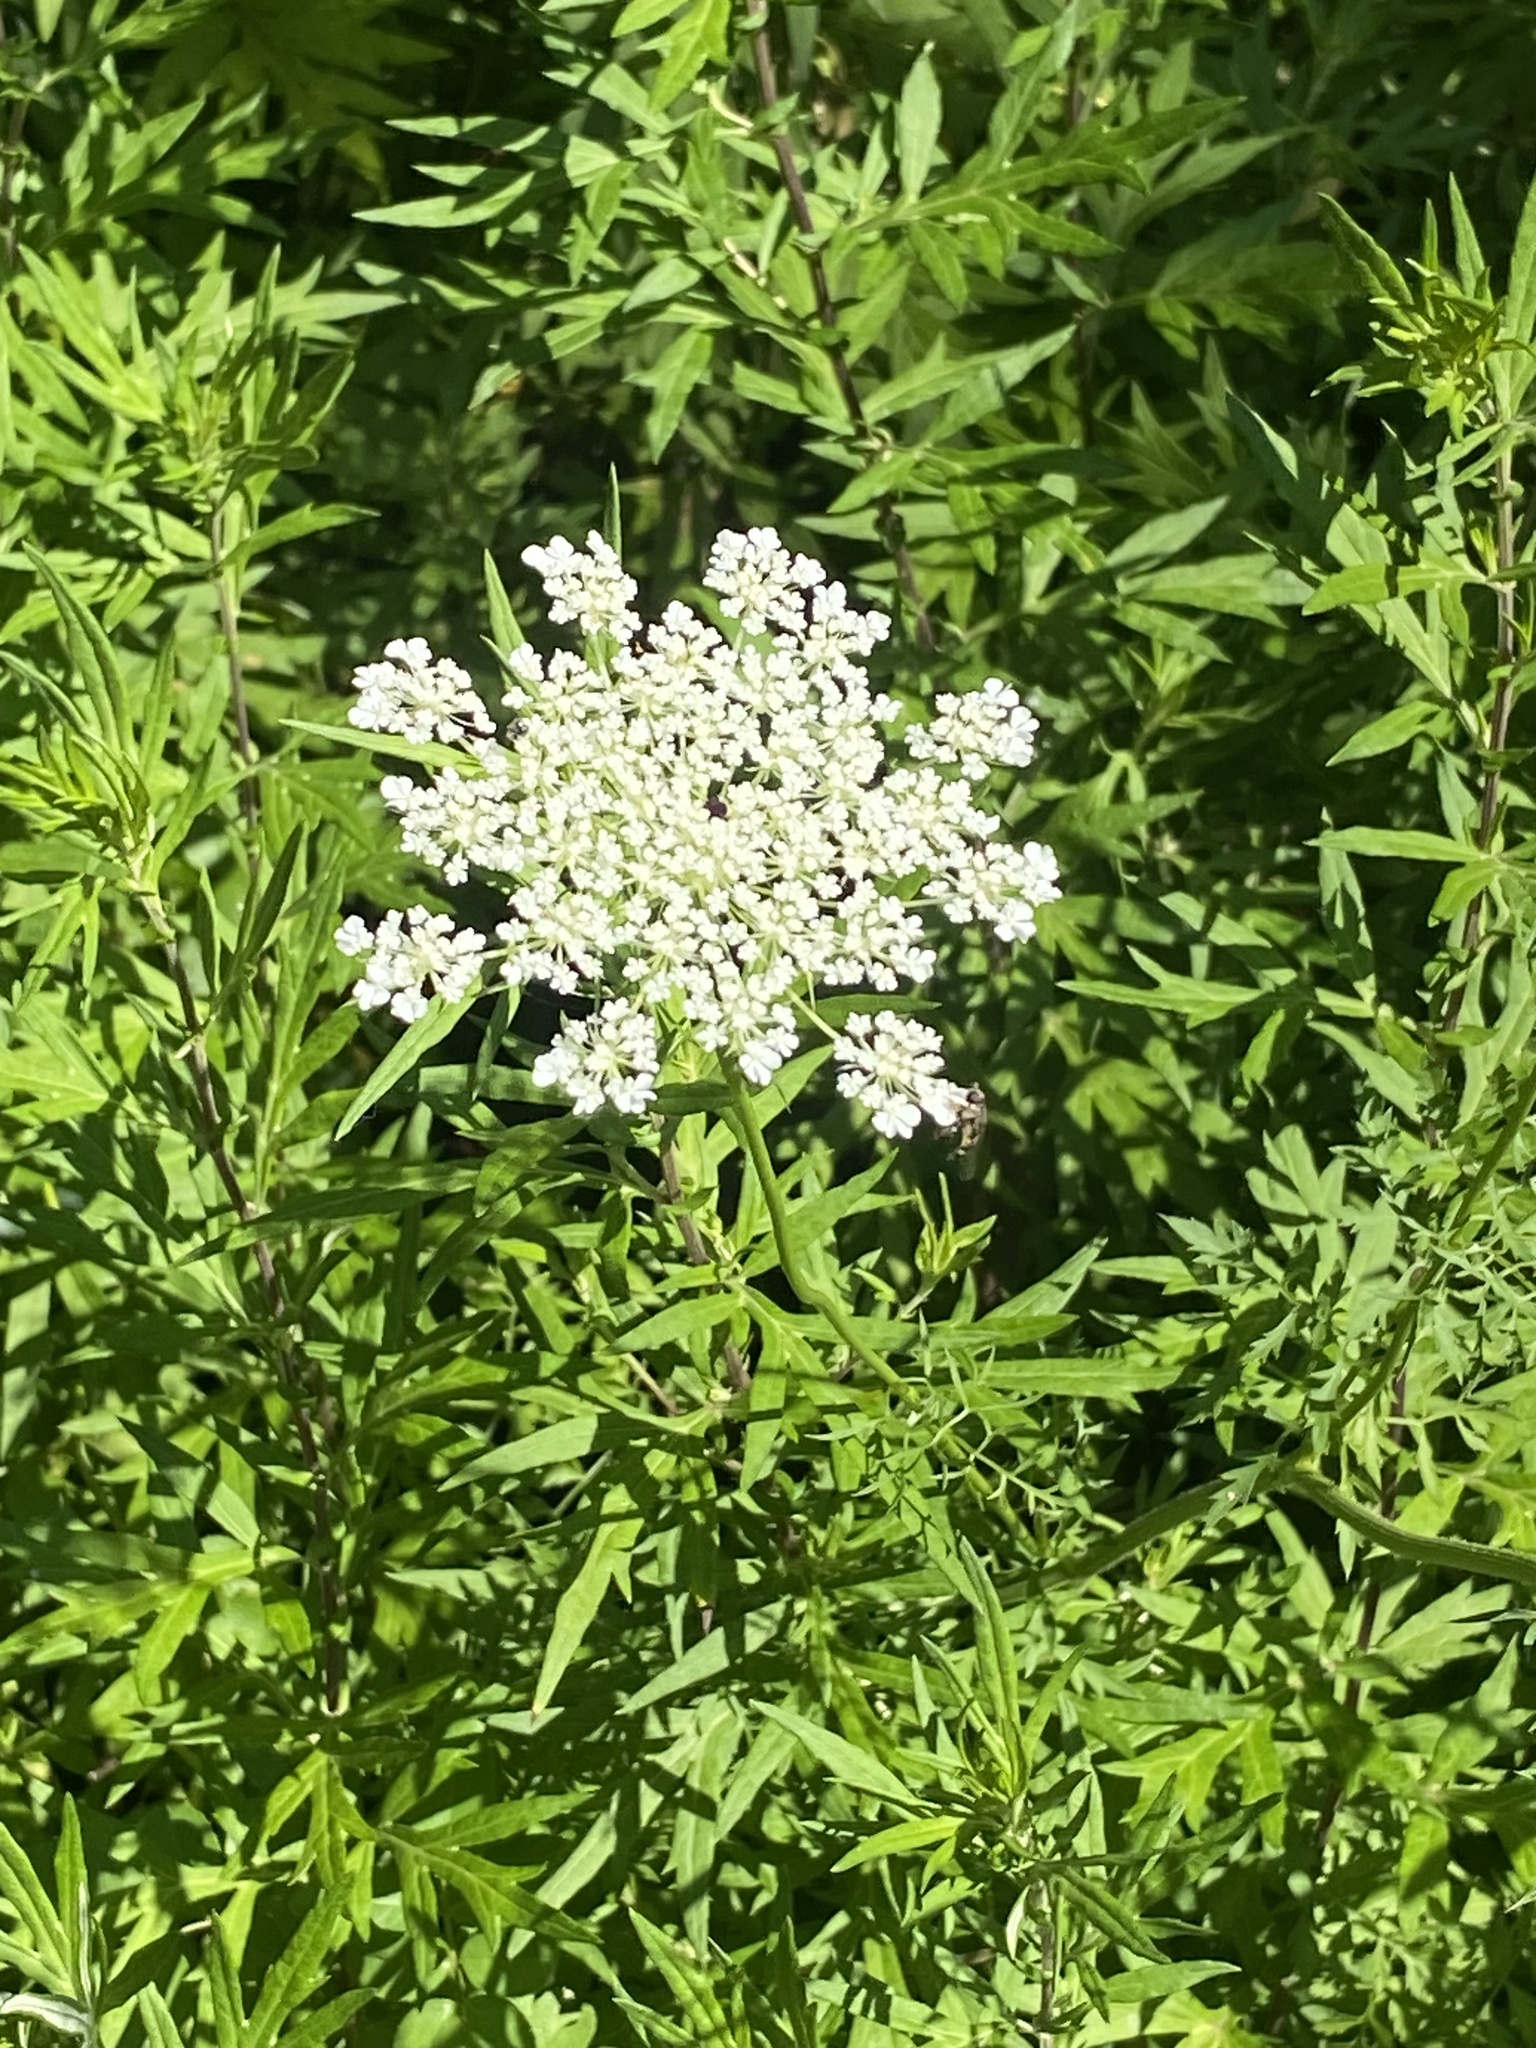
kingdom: Plantae
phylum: Tracheophyta
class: Magnoliopsida
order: Apiales
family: Apiaceae
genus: Daucus
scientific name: Daucus carota
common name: Wild carrot
